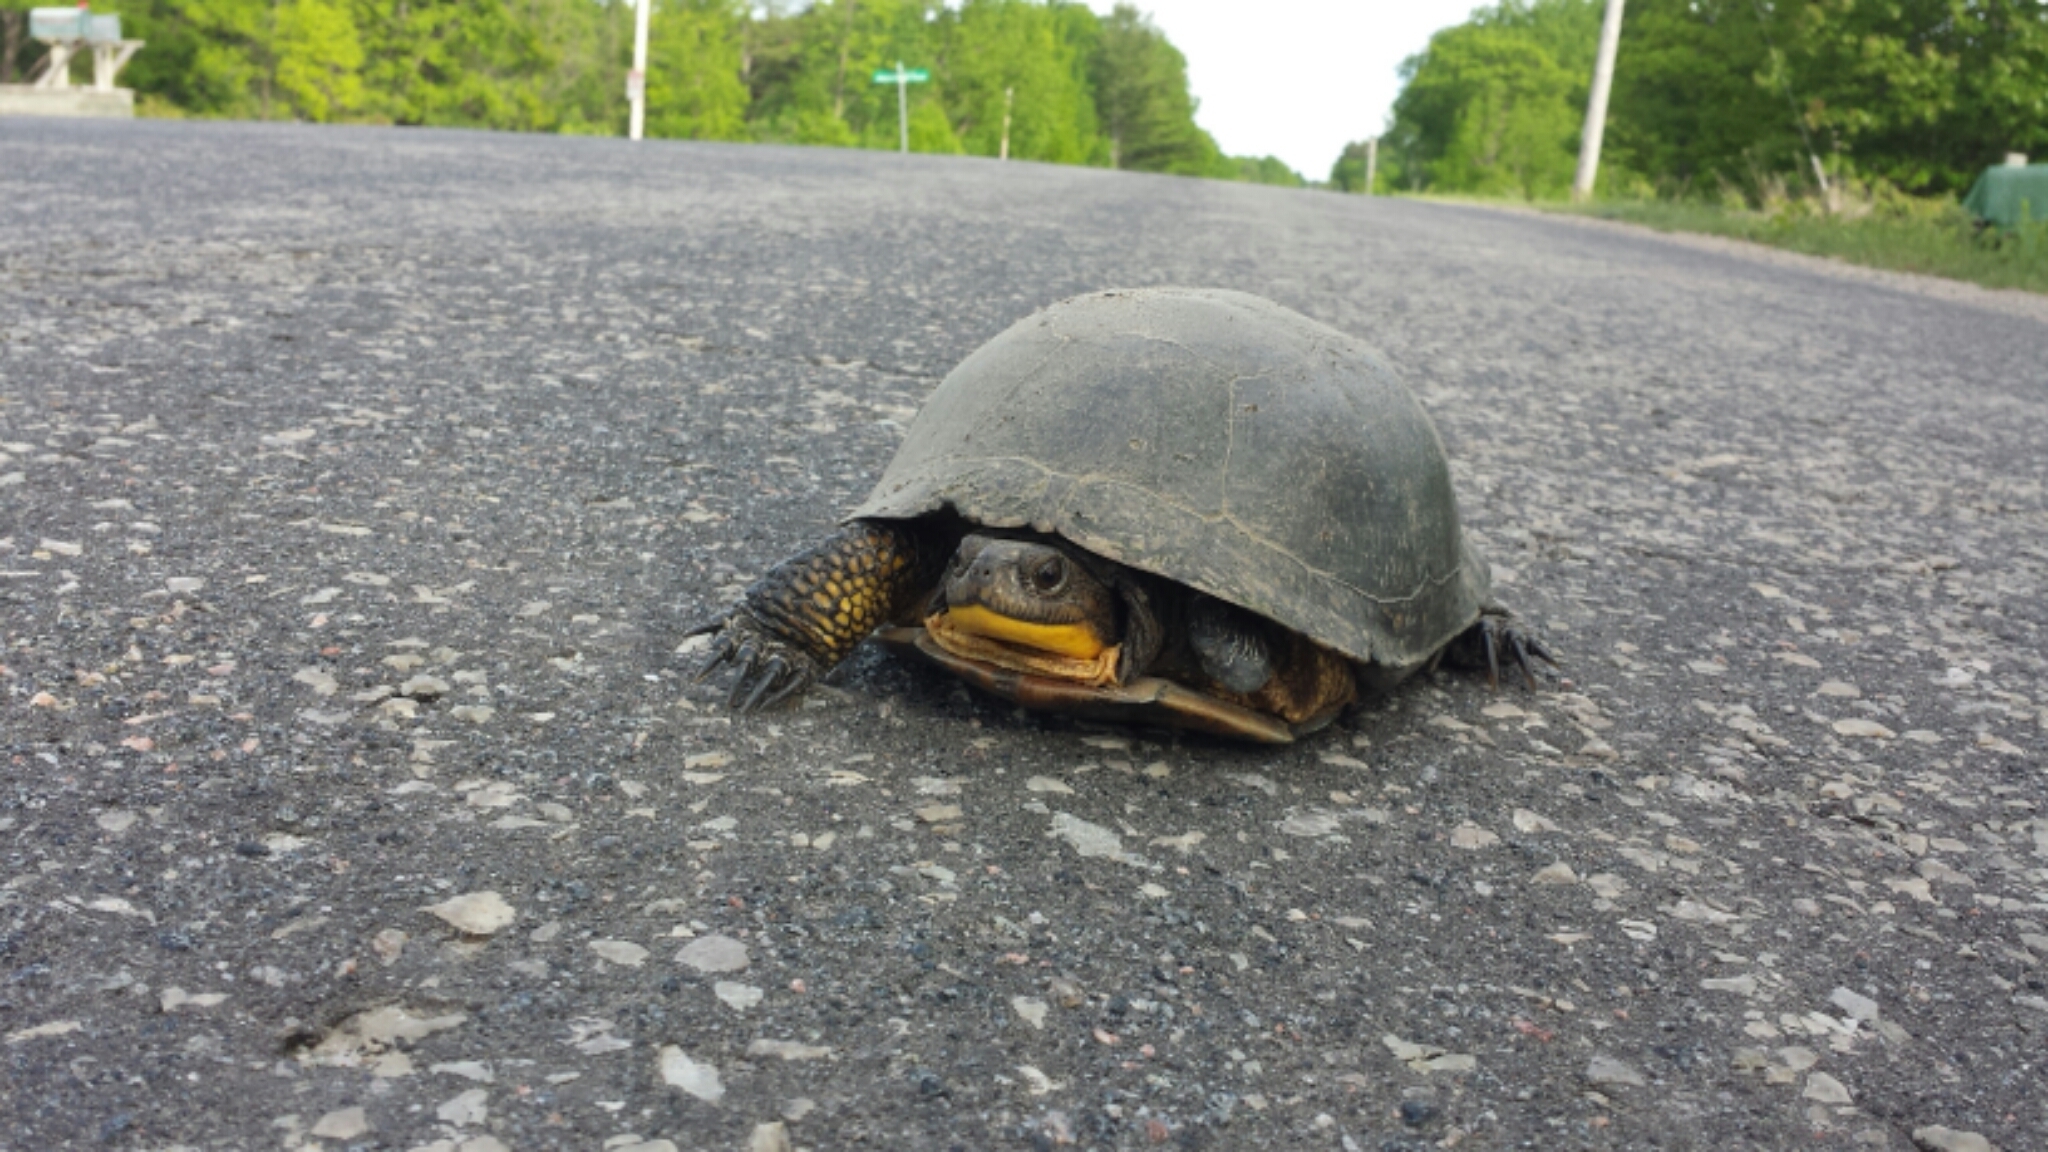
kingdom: Animalia
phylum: Chordata
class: Testudines
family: Emydidae
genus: Emys
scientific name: Emys blandingii
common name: Blanding's turtle
